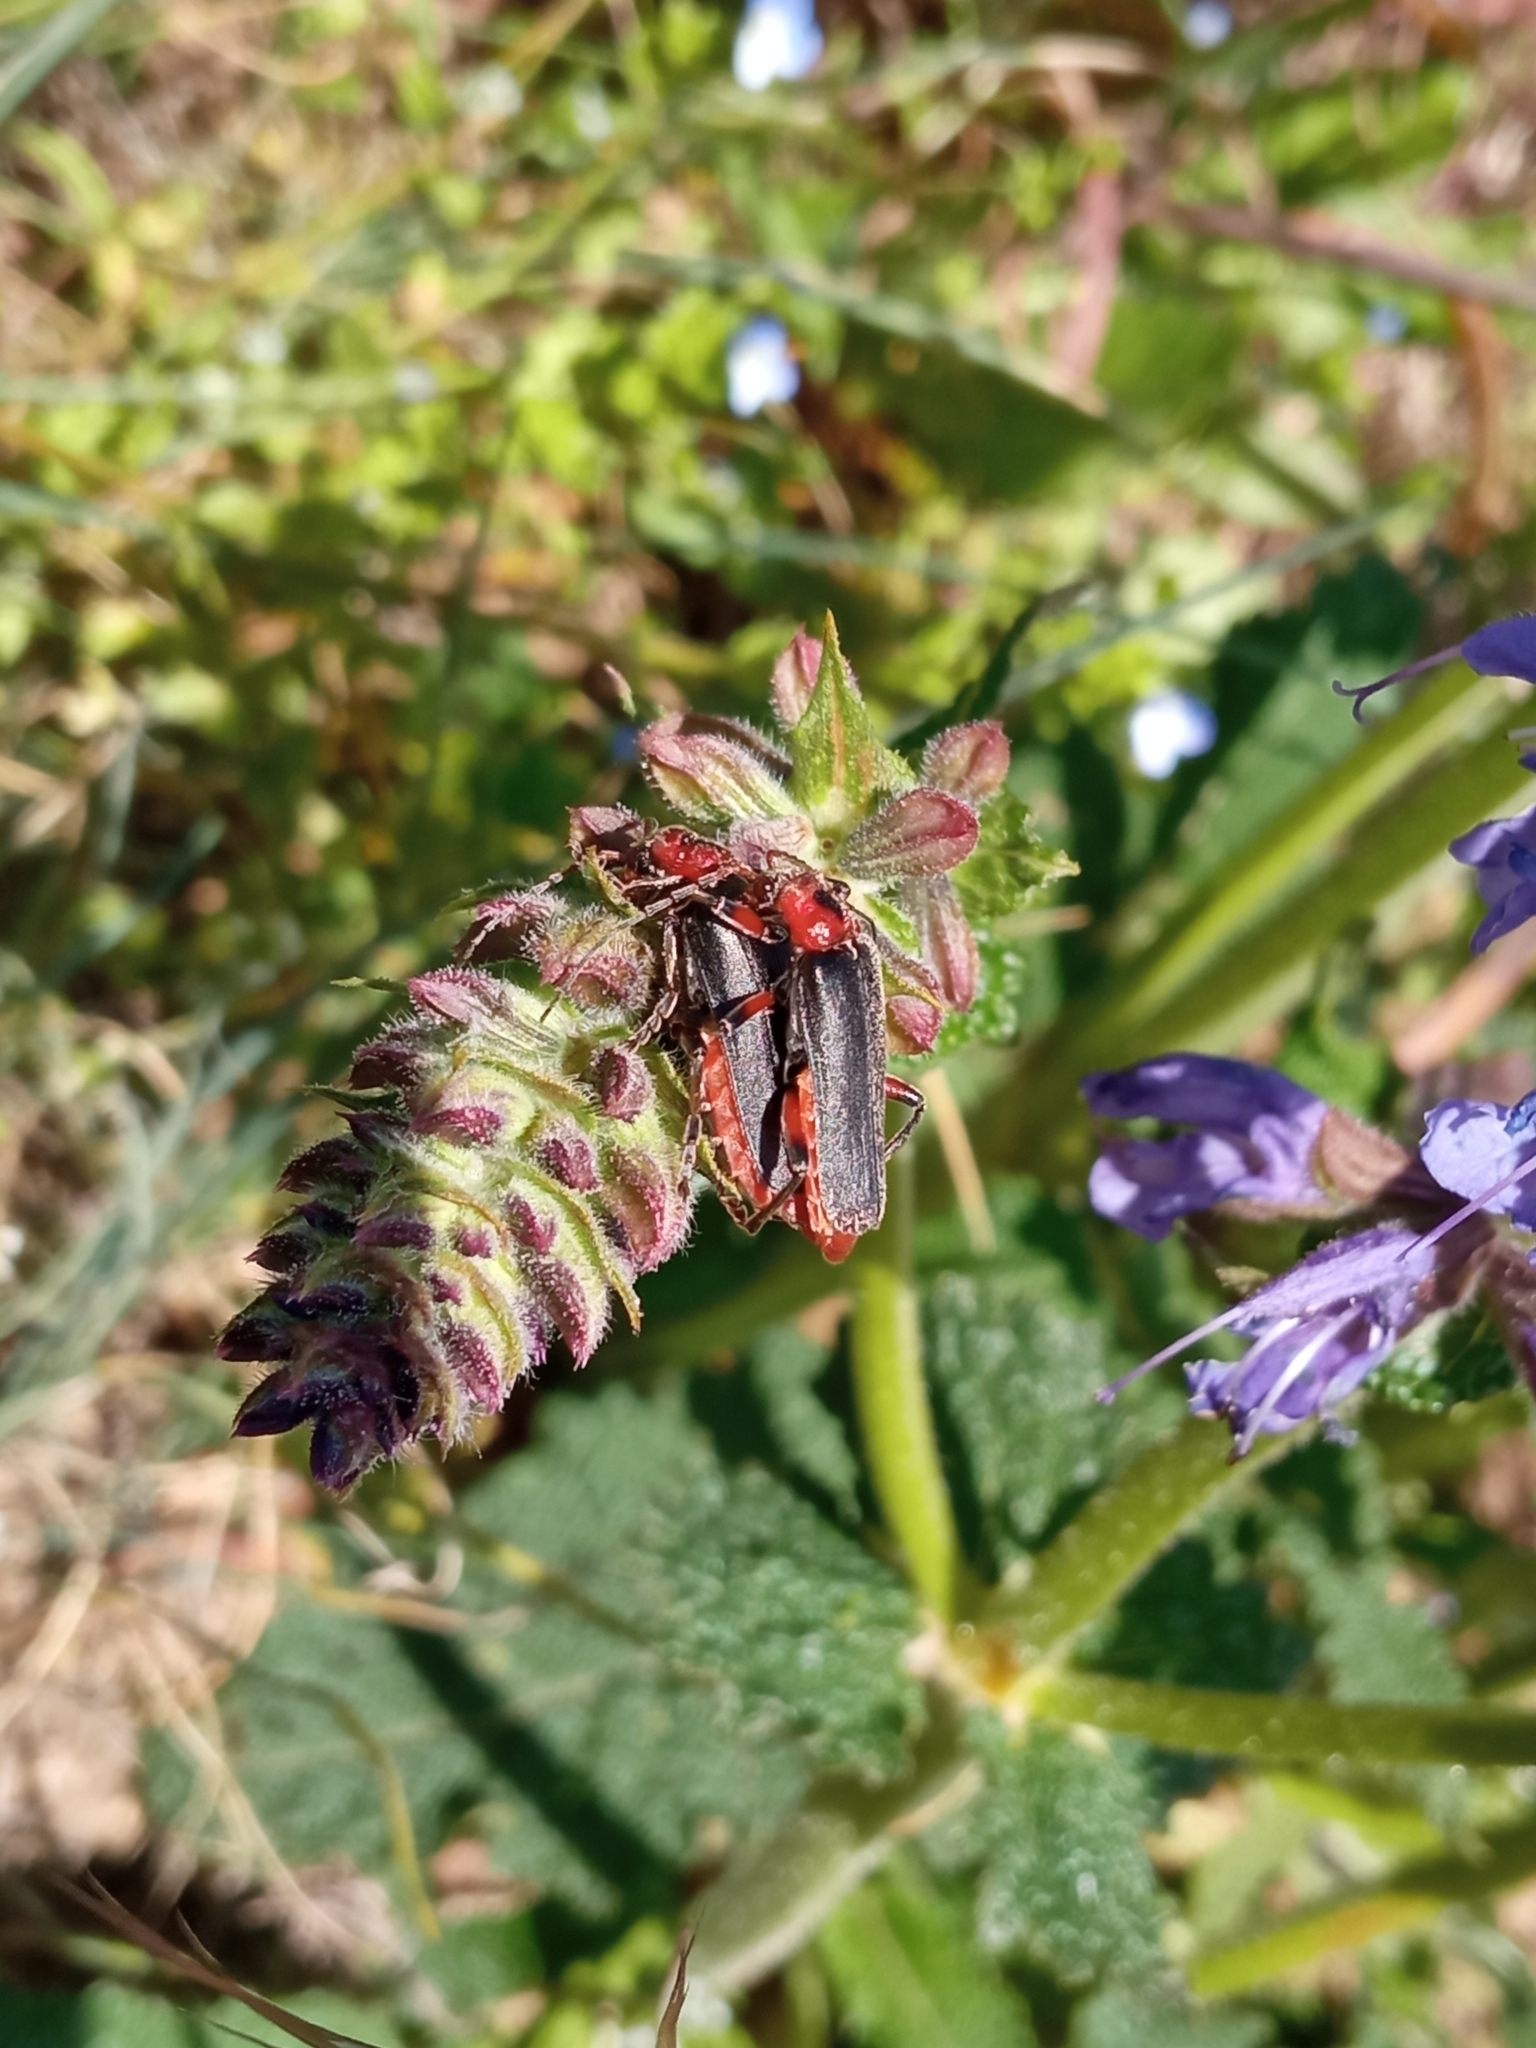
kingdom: Animalia
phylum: Arthropoda
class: Insecta
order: Coleoptera
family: Cantharidae
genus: Cantharis
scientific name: Cantharis rustica
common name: Soldier beetle
